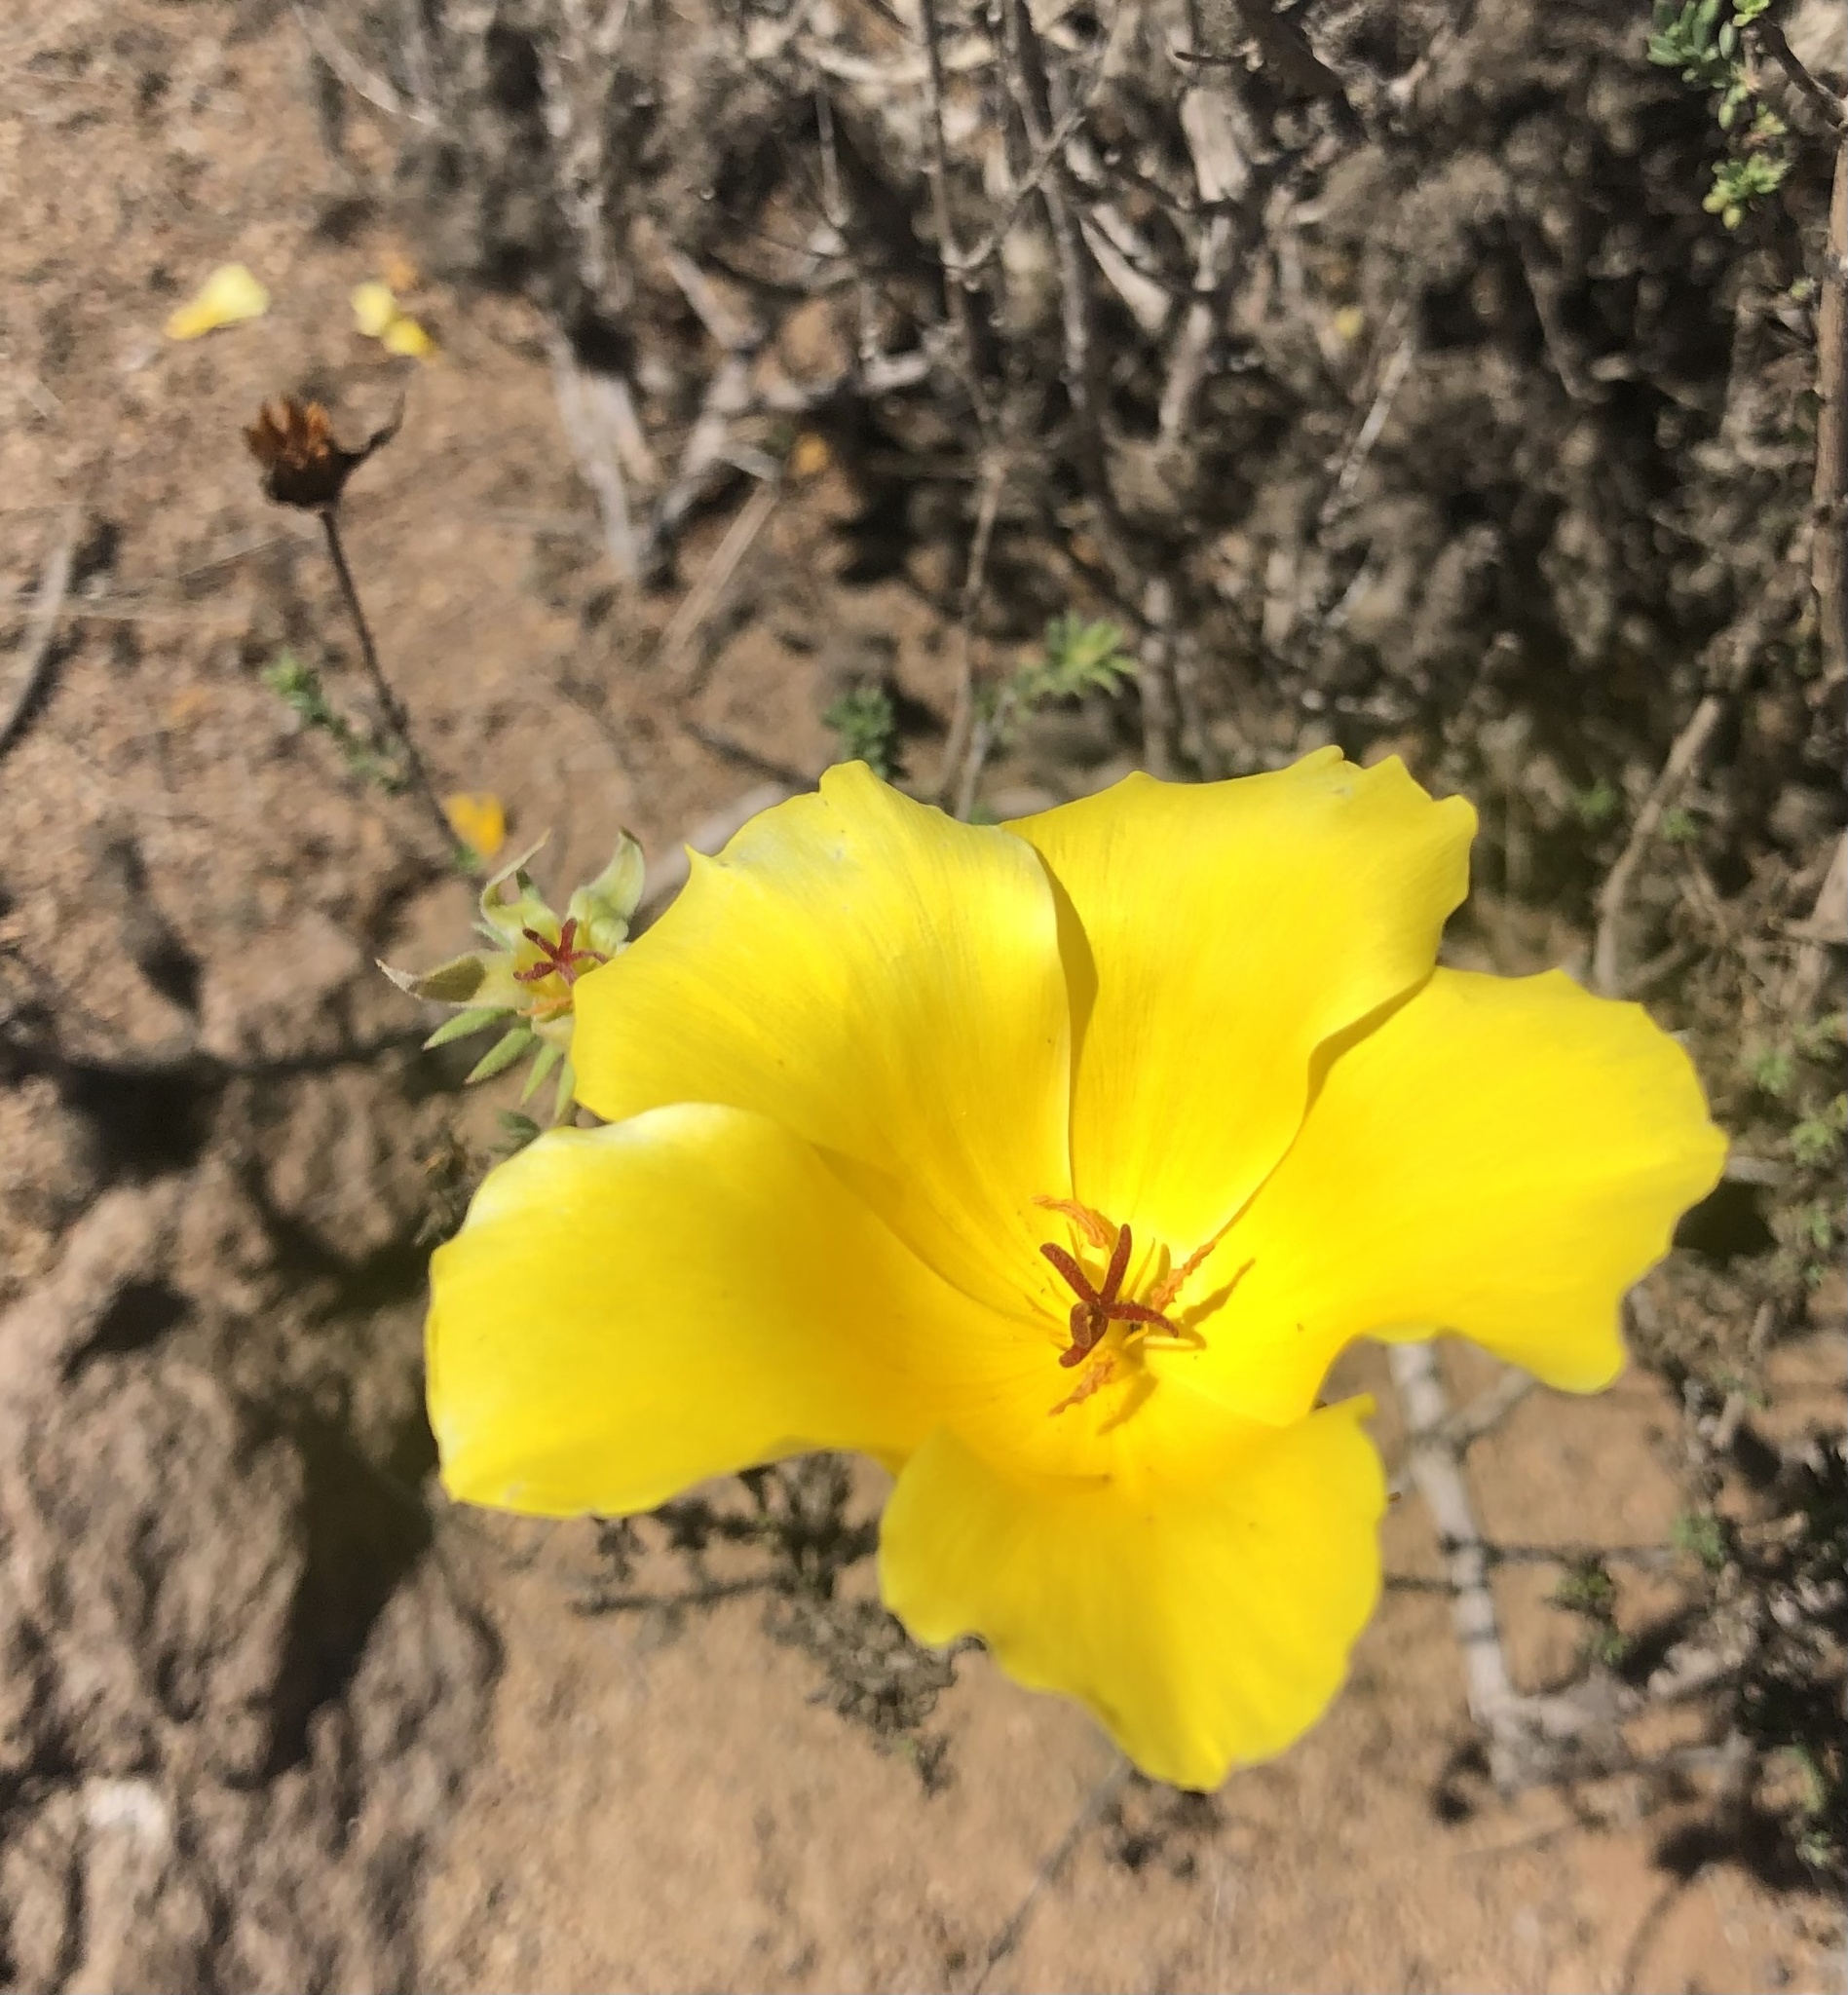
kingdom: Plantae
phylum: Tracheophyta
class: Magnoliopsida
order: Geraniales
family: Vivianiaceae
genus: Balbisia
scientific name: Balbisia peduncularis
